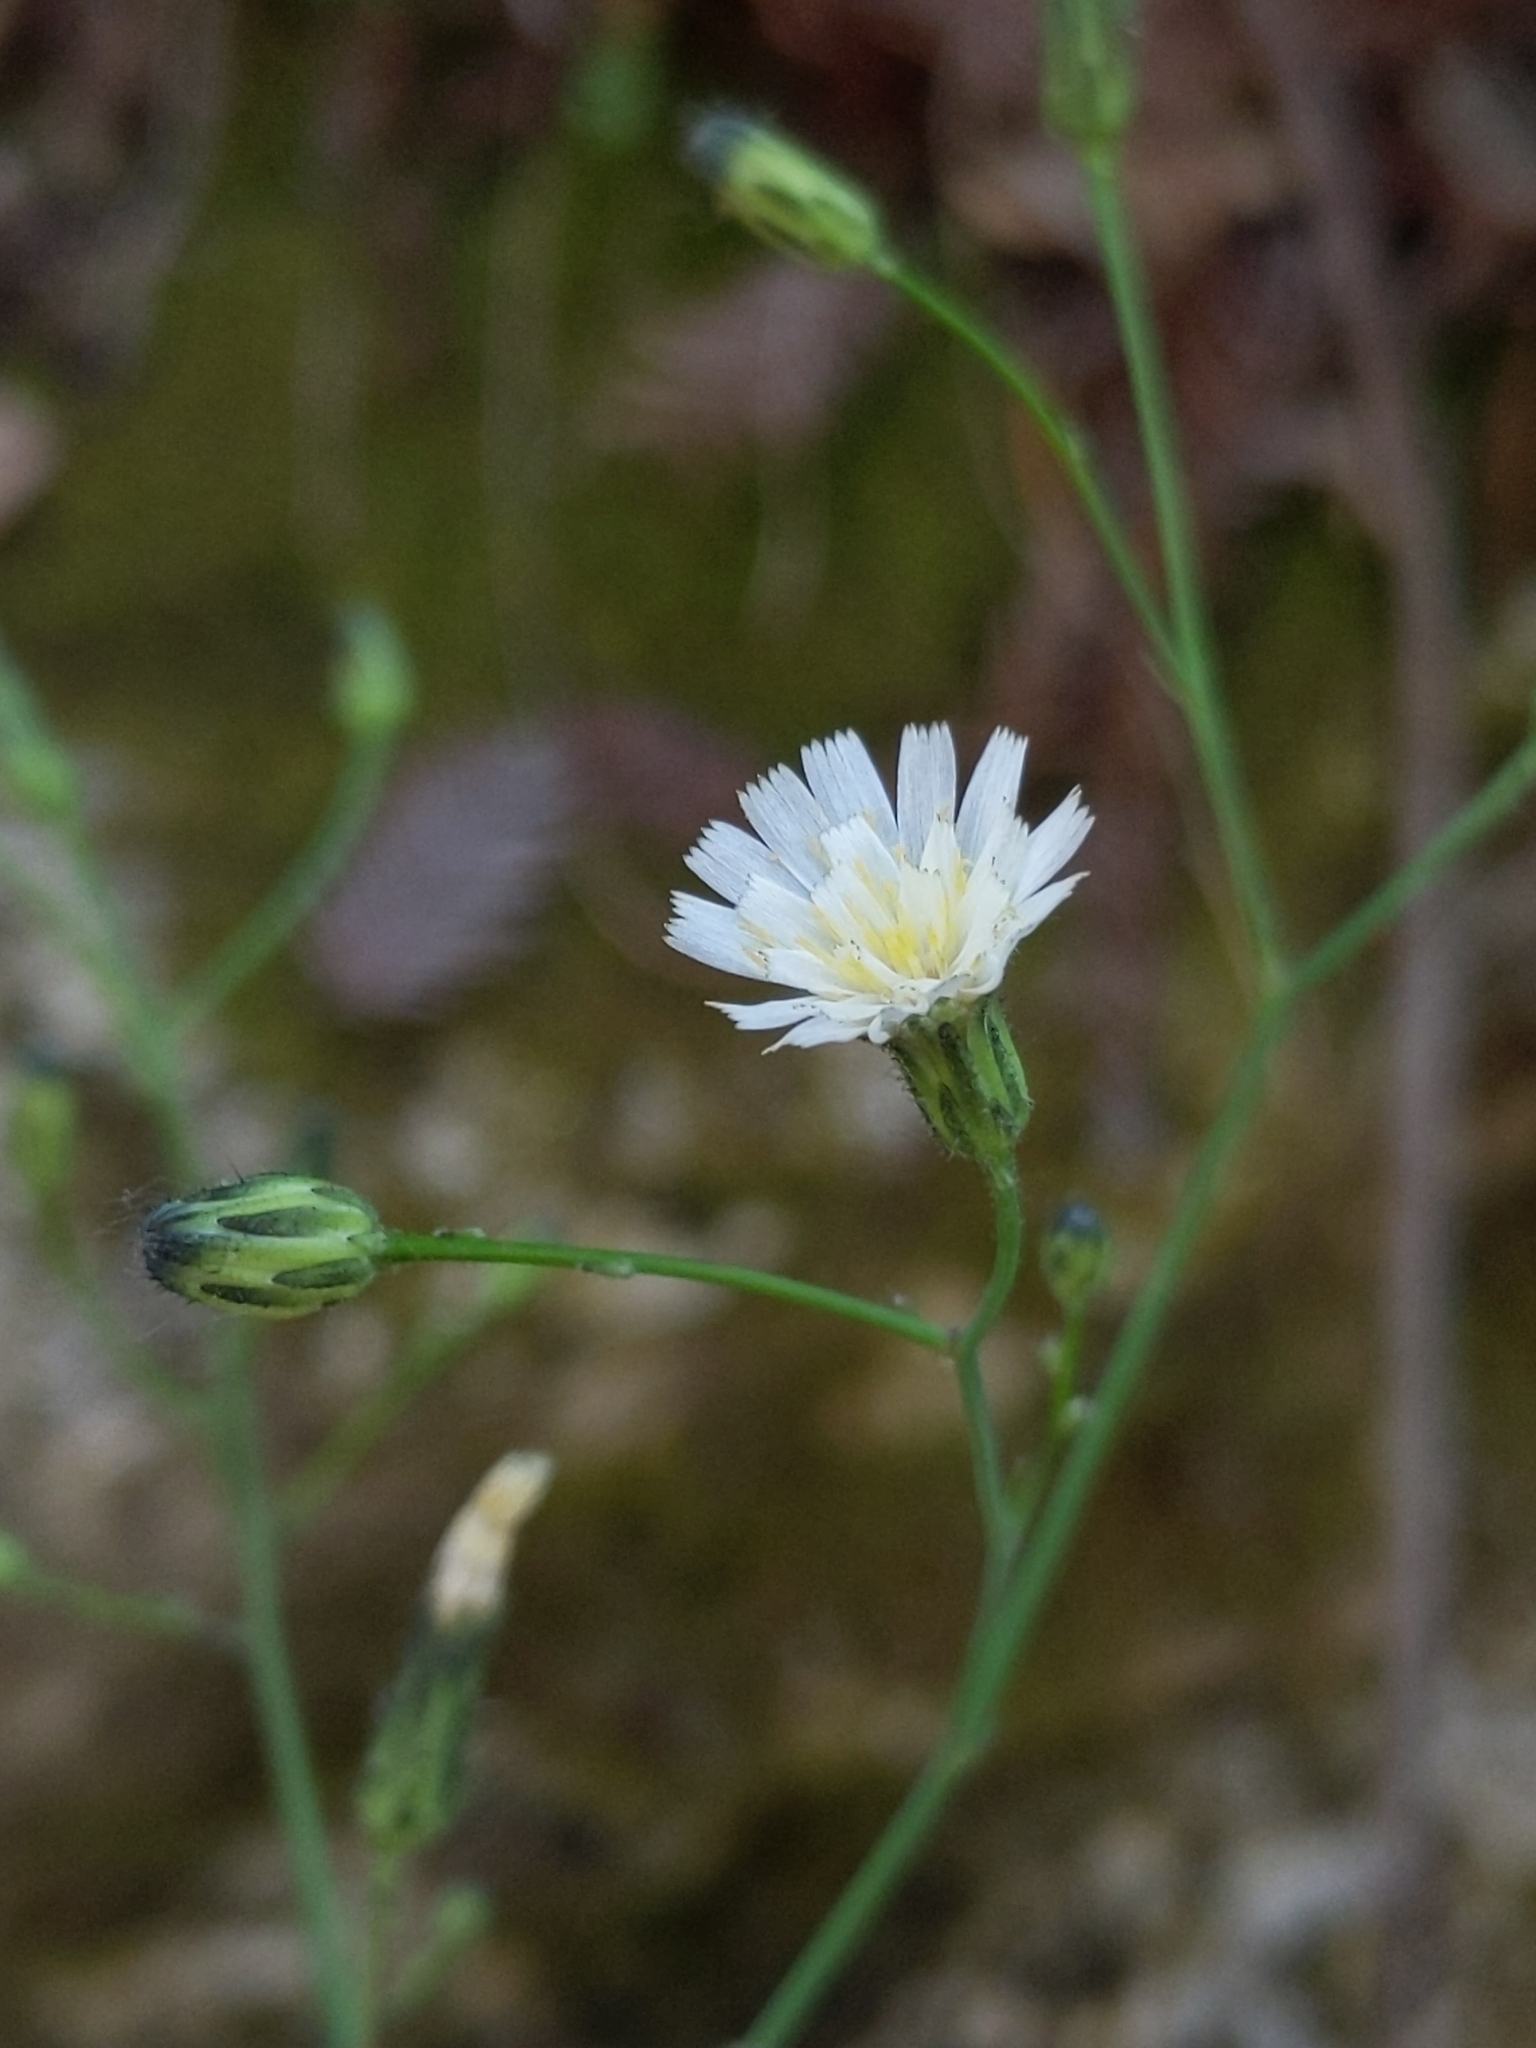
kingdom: Plantae
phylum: Tracheophyta
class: Magnoliopsida
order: Asterales
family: Asteraceae
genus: Hieracium
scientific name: Hieracium albiflorum
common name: White hawkweed
